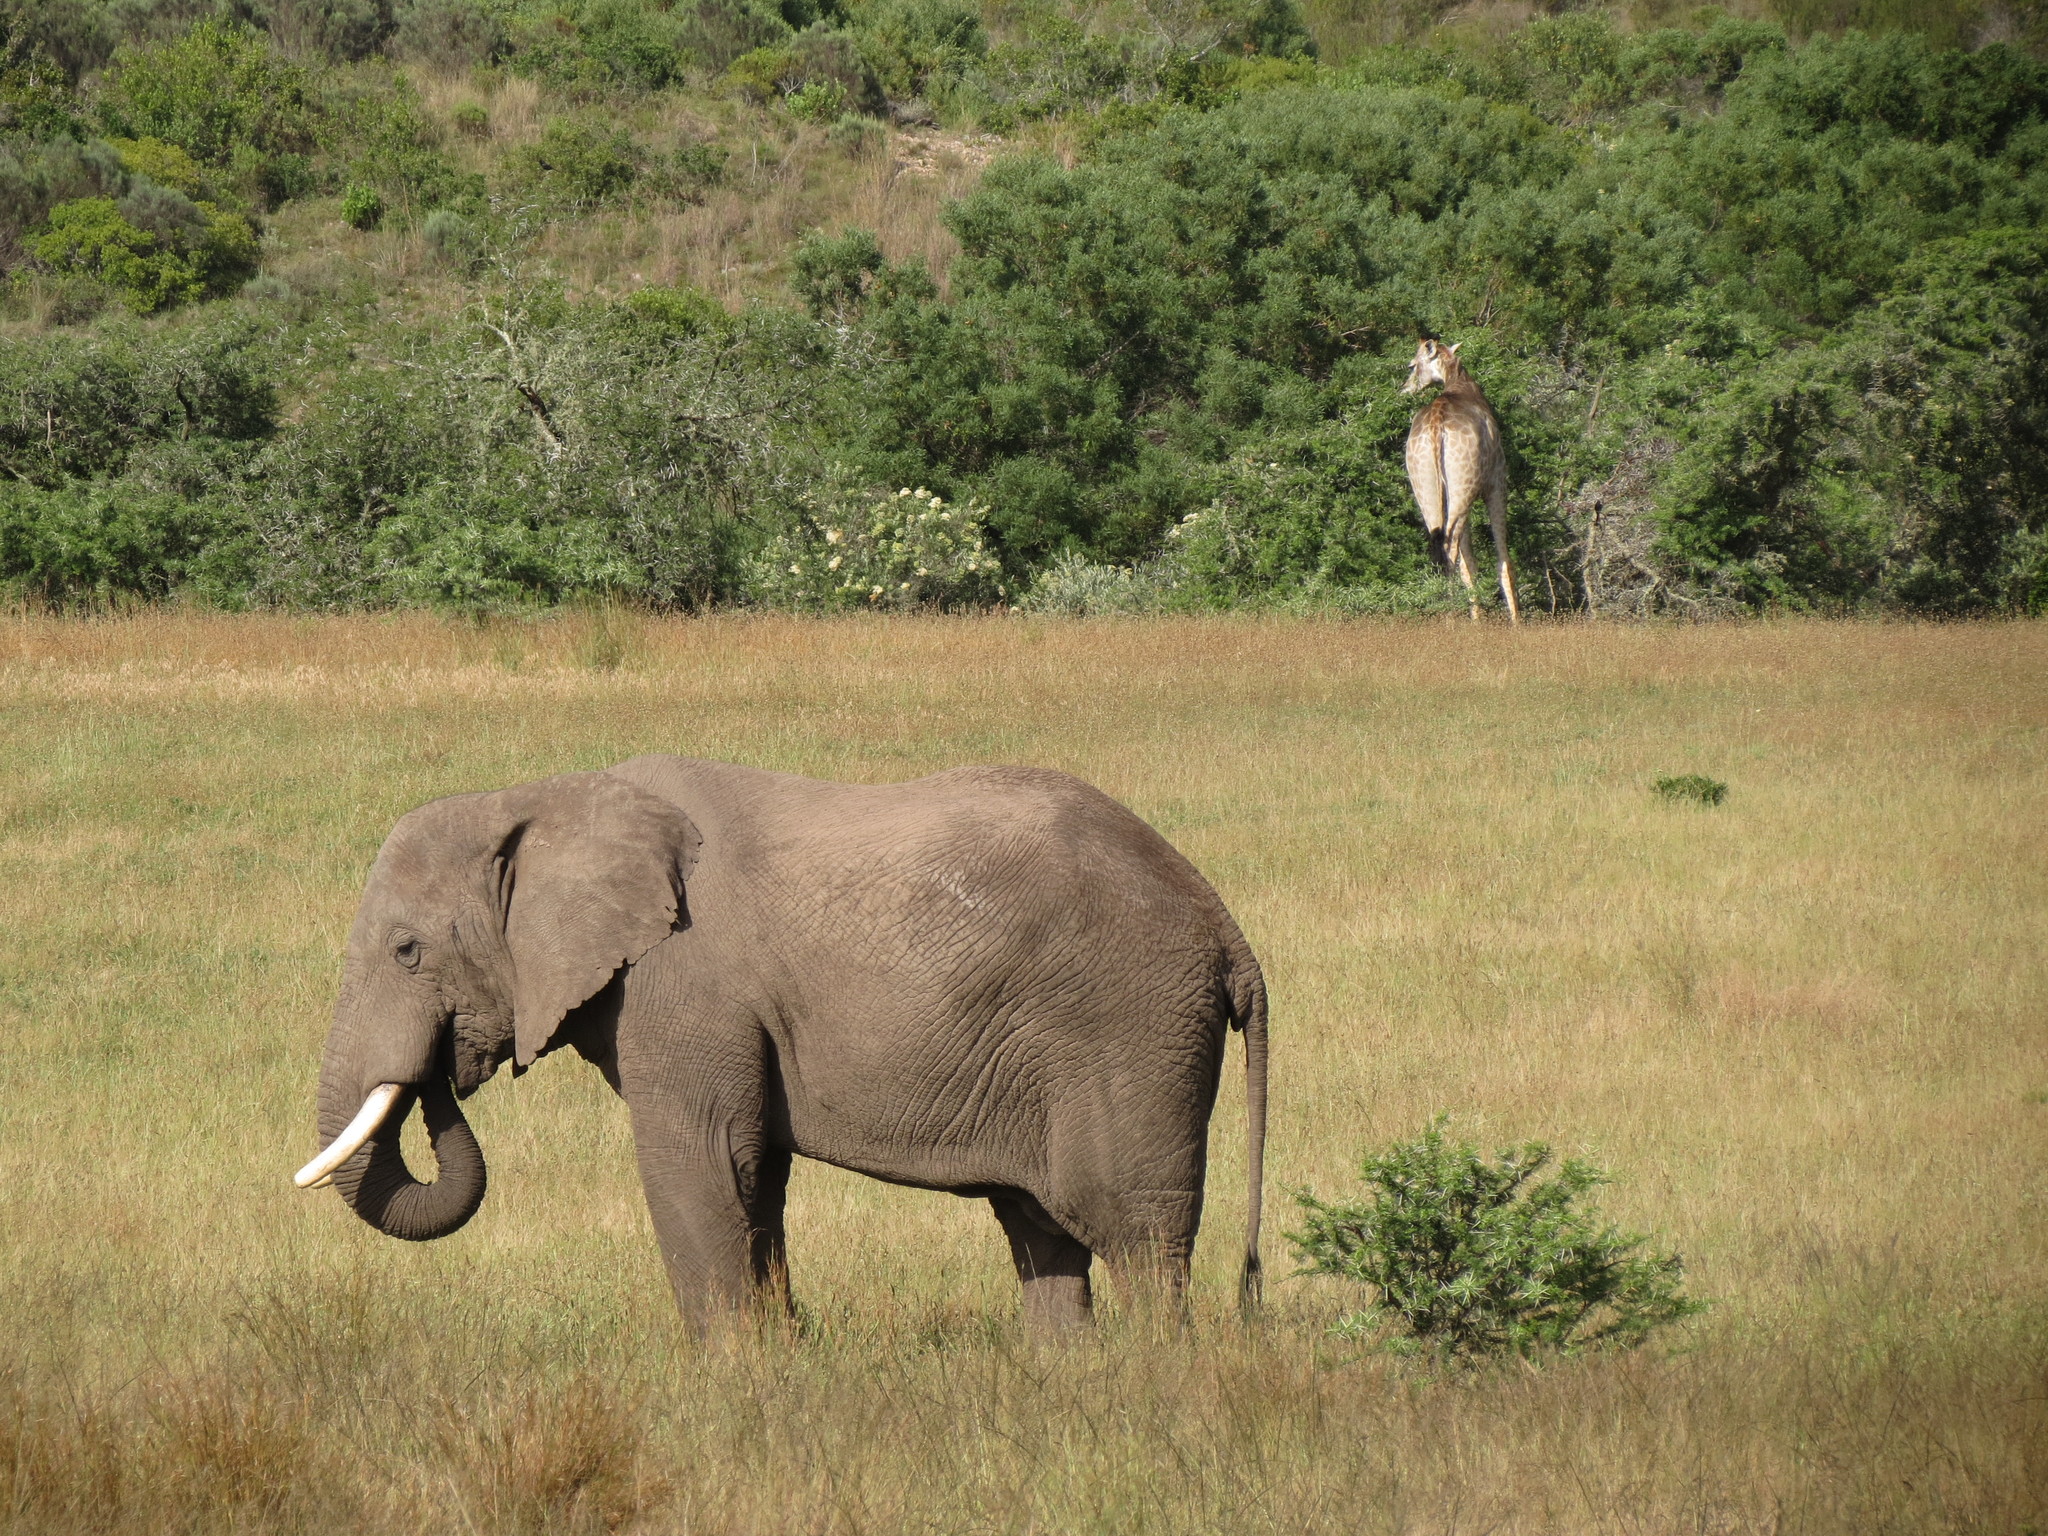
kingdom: Animalia
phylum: Chordata
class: Mammalia
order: Proboscidea
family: Elephantidae
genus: Loxodonta
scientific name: Loxodonta africana
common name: African elephant
